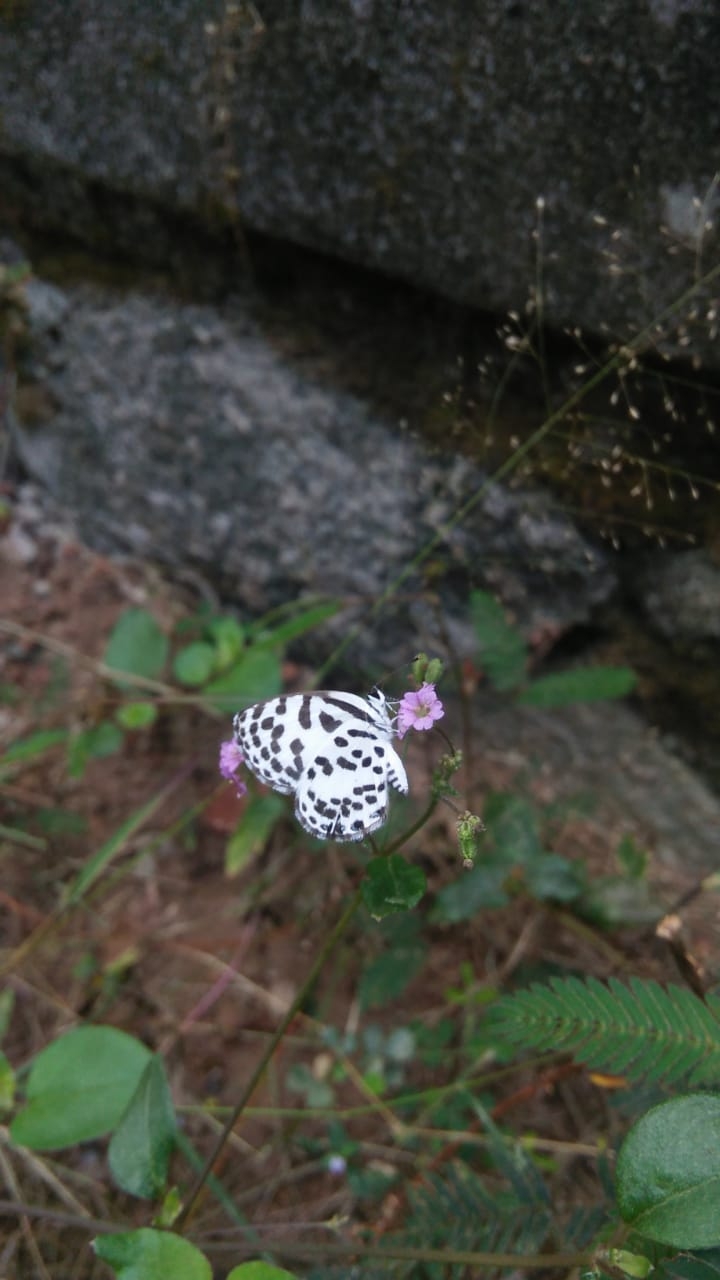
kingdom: Animalia
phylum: Arthropoda
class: Insecta
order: Lepidoptera
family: Lycaenidae
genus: Castalius
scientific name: Castalius rosimon
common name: Common pierrot
